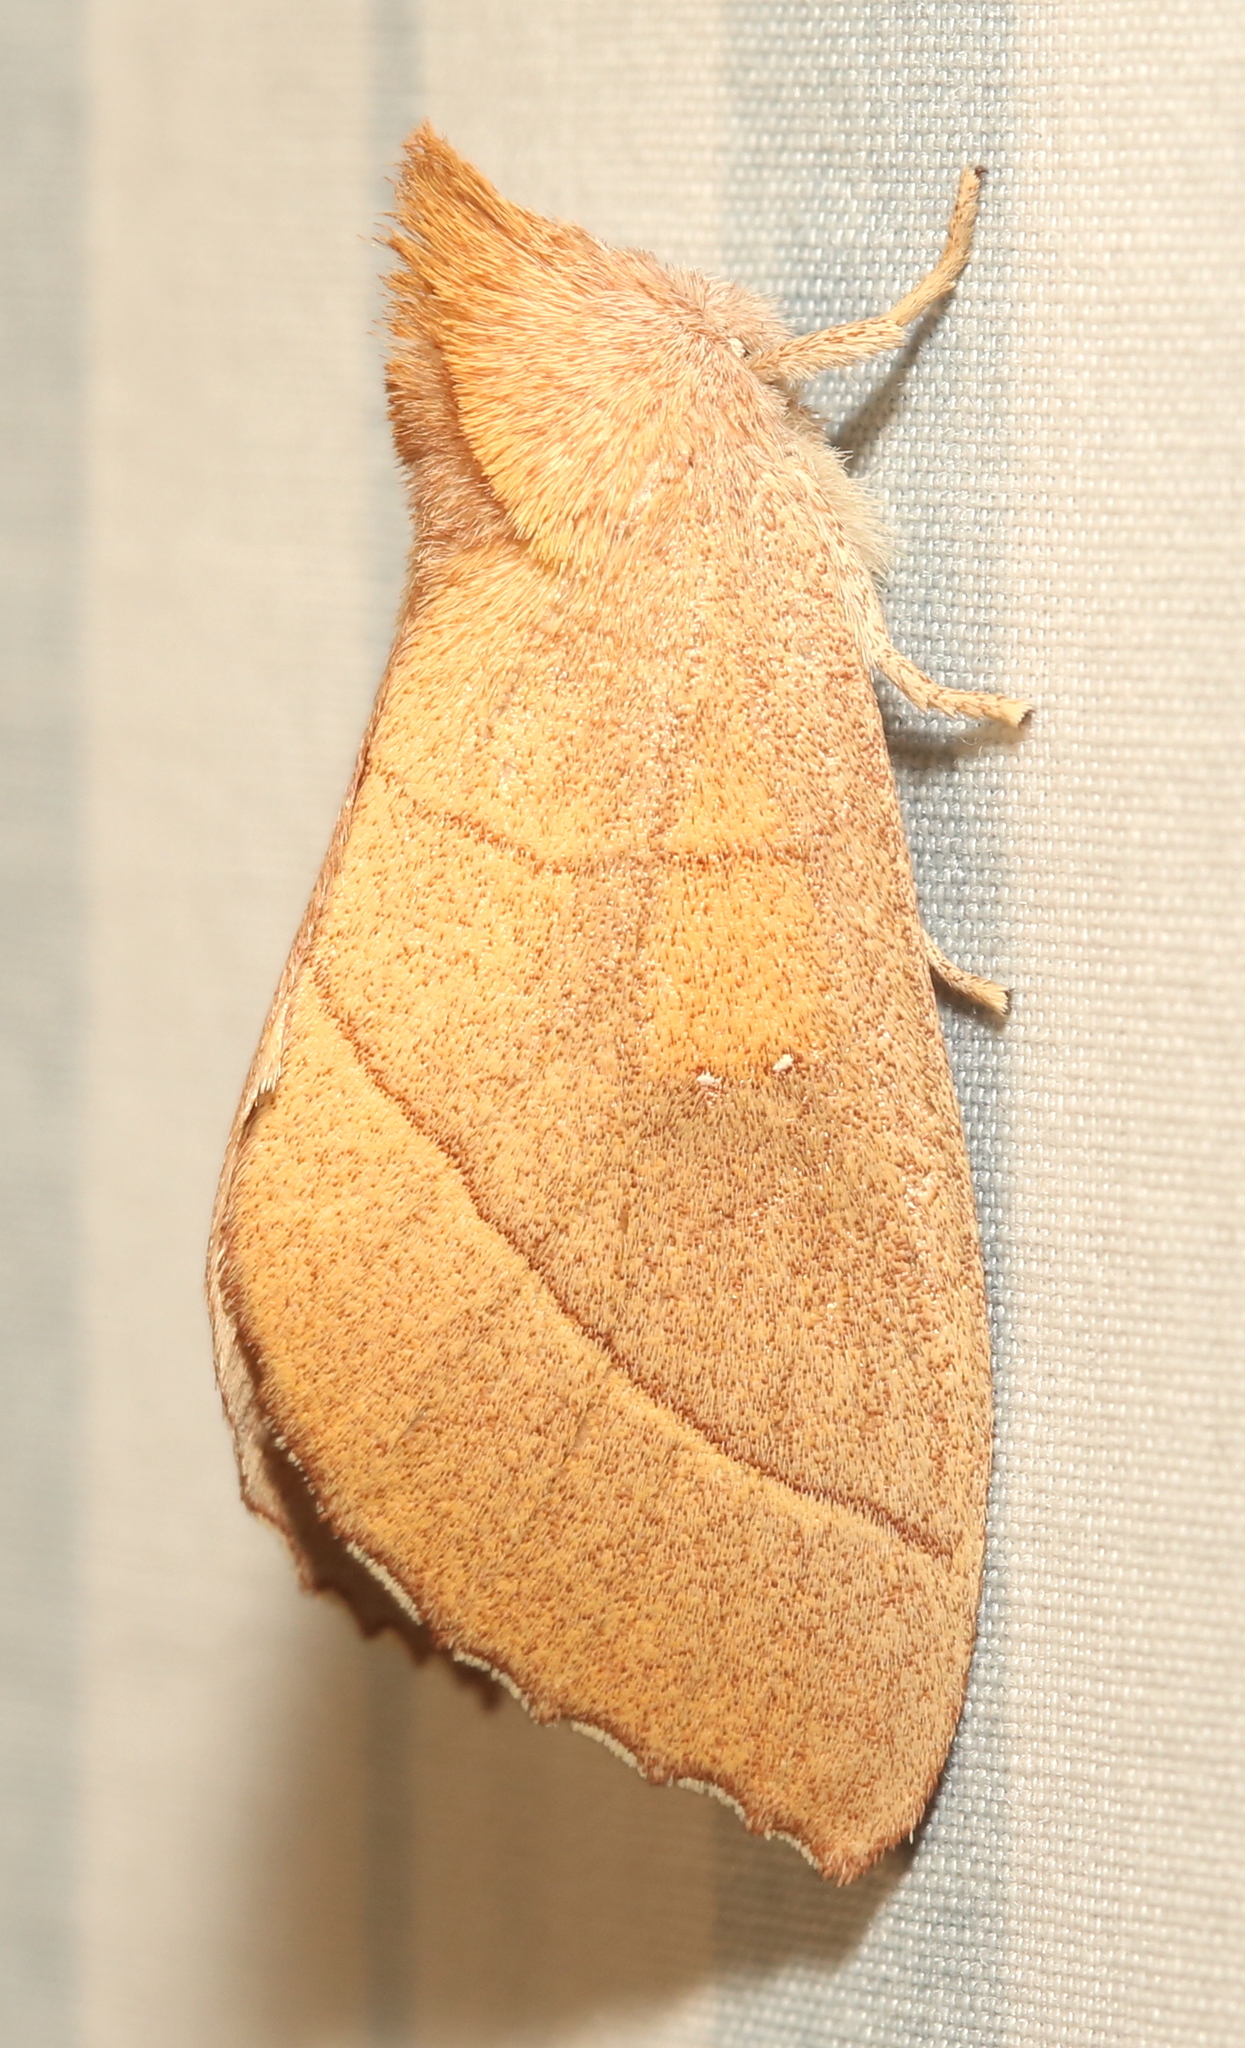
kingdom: Animalia
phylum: Arthropoda
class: Insecta
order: Lepidoptera
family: Notodontidae
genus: Nadata
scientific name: Nadata gibbosa
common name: White-dotted prominent
